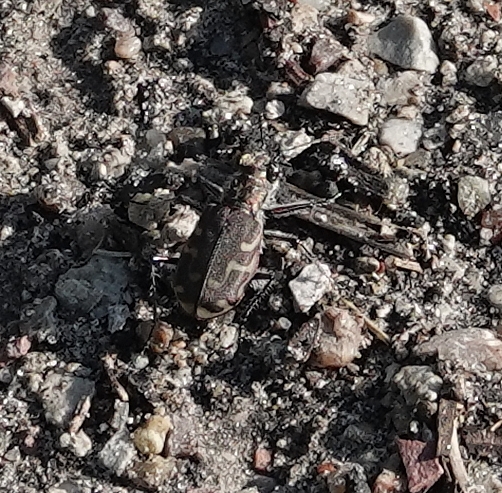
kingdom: Animalia
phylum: Arthropoda
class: Insecta
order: Coleoptera
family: Carabidae
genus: Cicindela
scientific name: Cicindela repanda
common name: Bronzed tiger beetle
